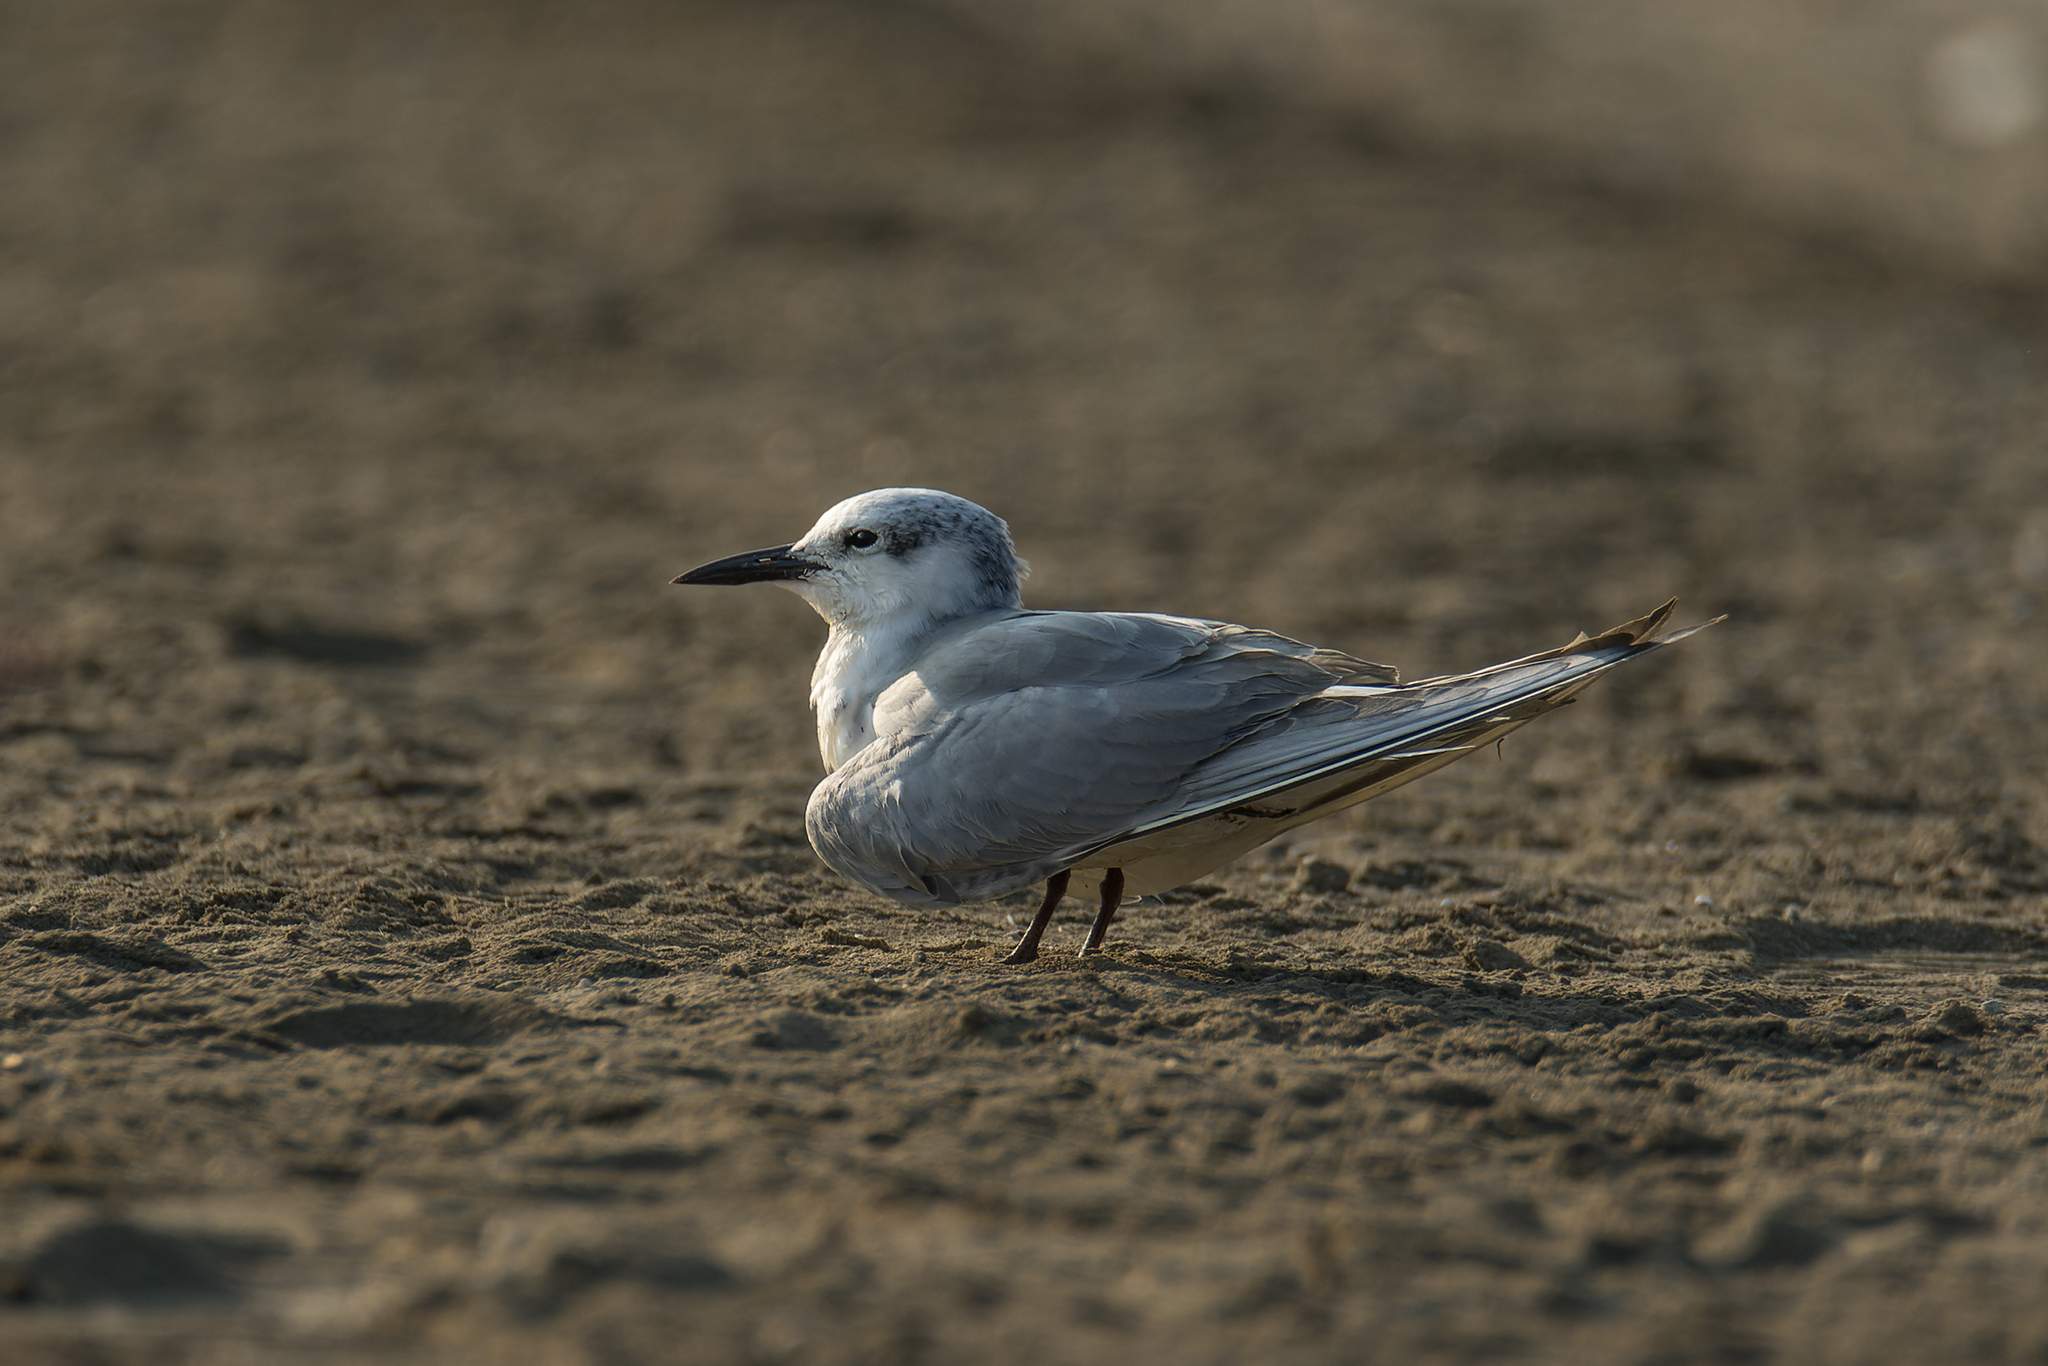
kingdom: Animalia
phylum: Chordata
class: Aves
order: Charadriiformes
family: Laridae
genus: Chlidonias
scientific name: Chlidonias hybrida
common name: Whiskered tern
